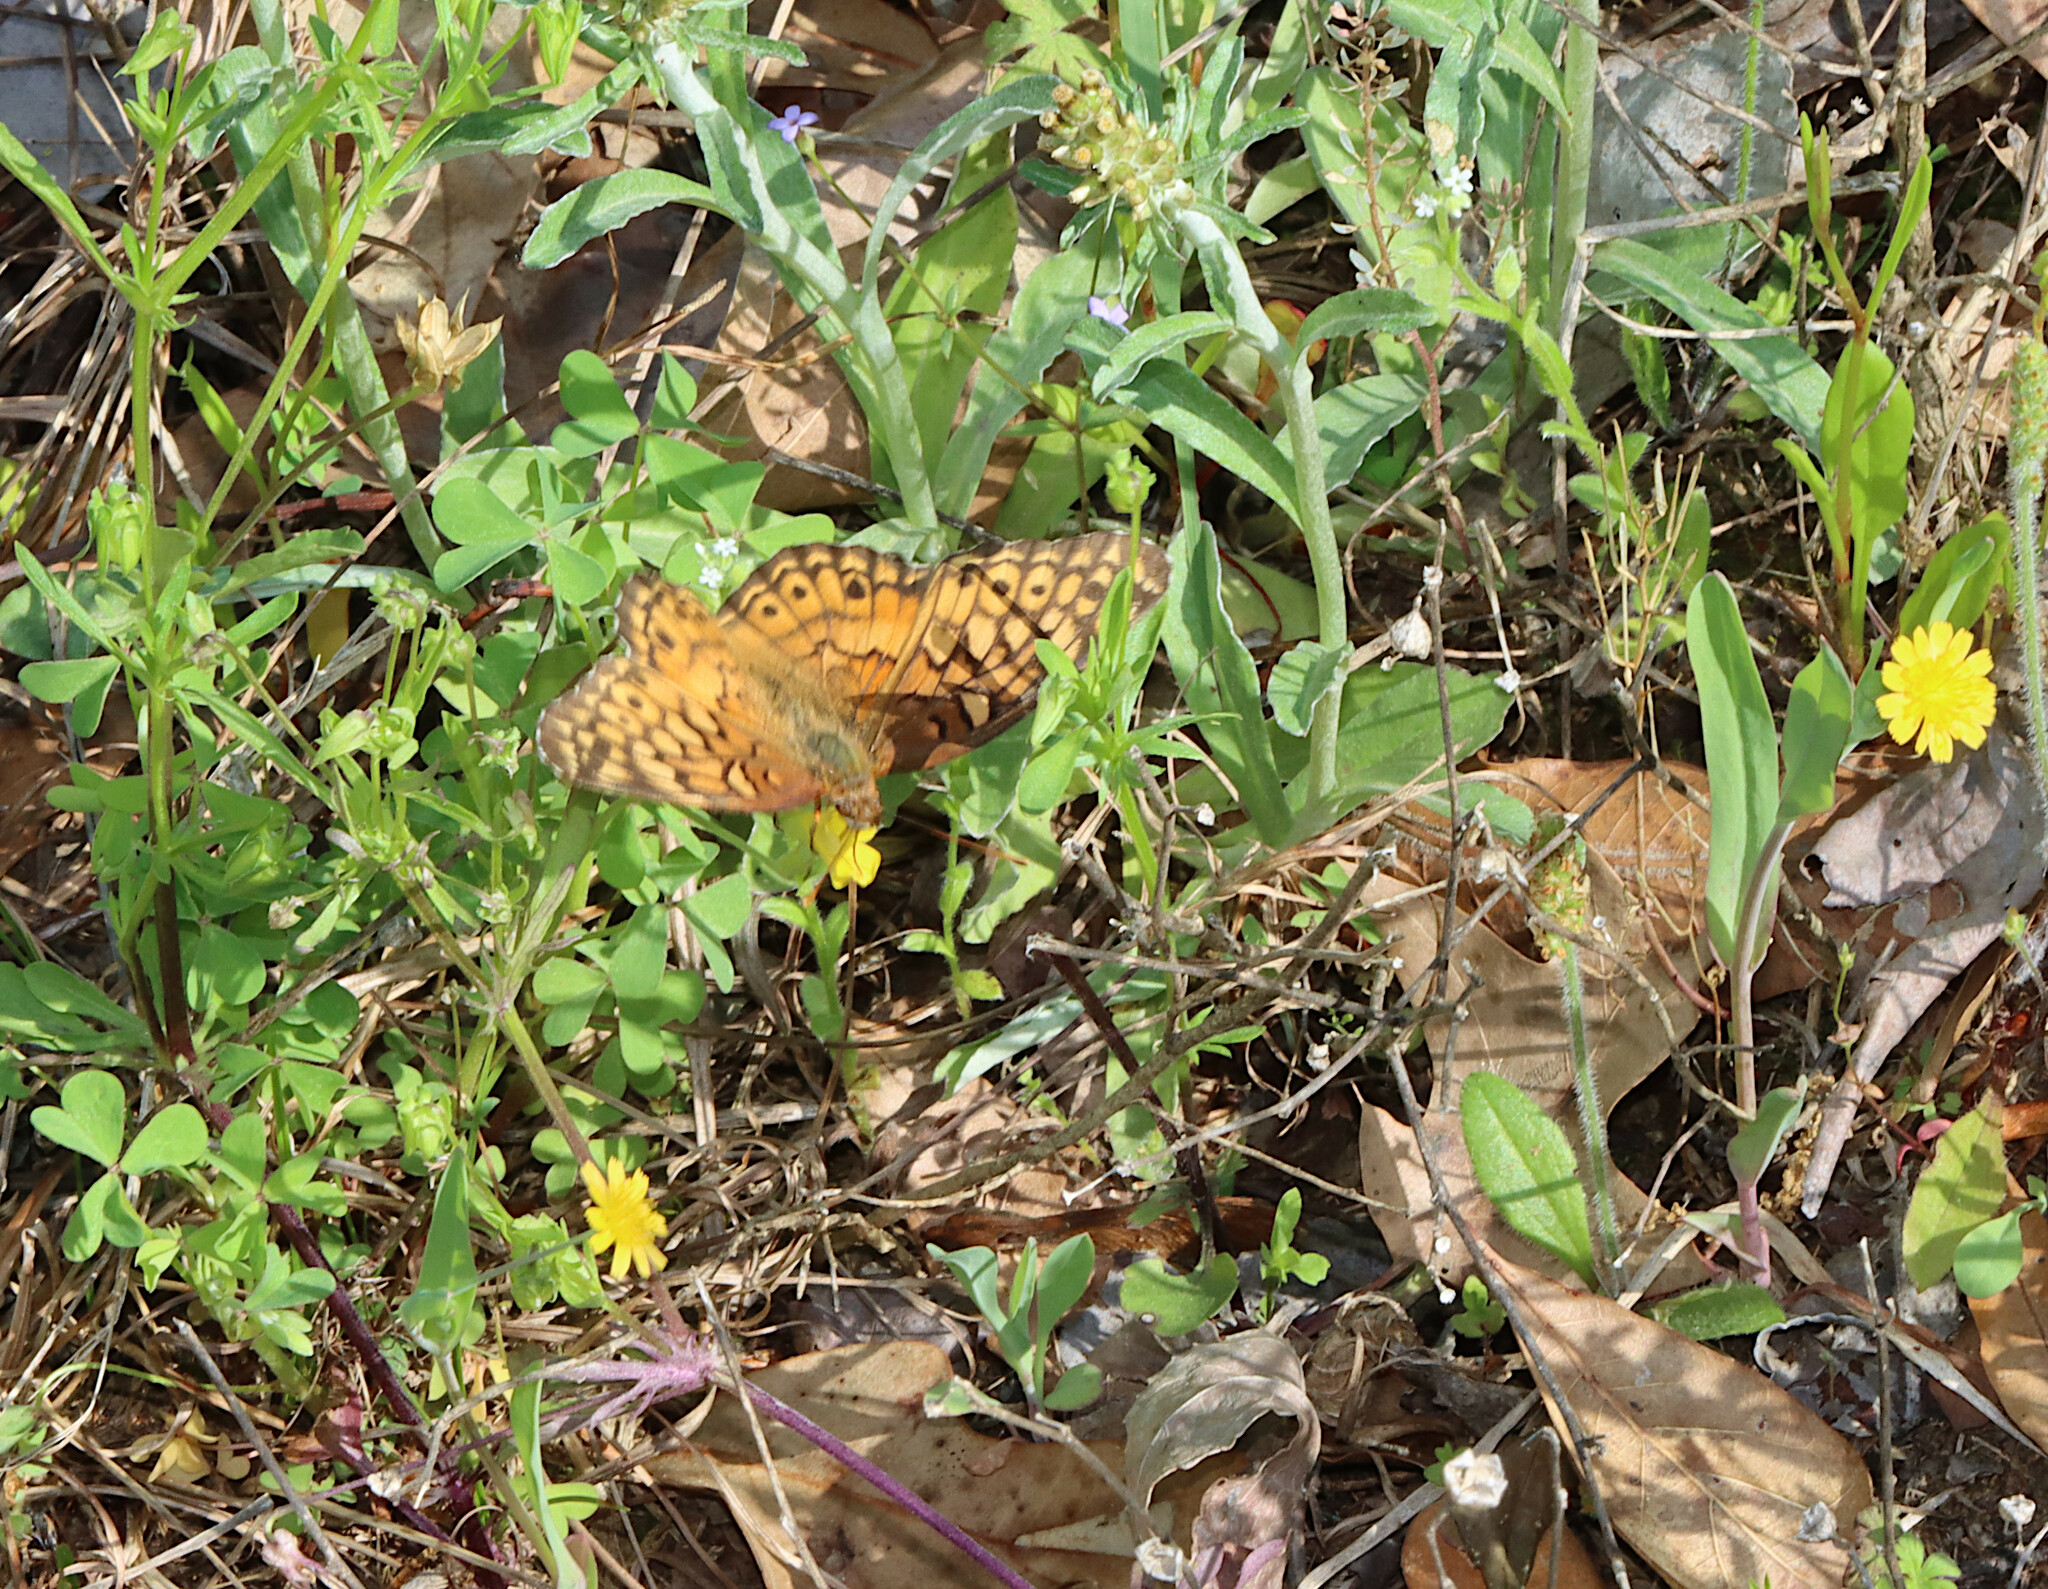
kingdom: Animalia
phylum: Arthropoda
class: Insecta
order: Lepidoptera
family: Nymphalidae
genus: Euptoieta
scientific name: Euptoieta claudia
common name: Variegated fritillary
